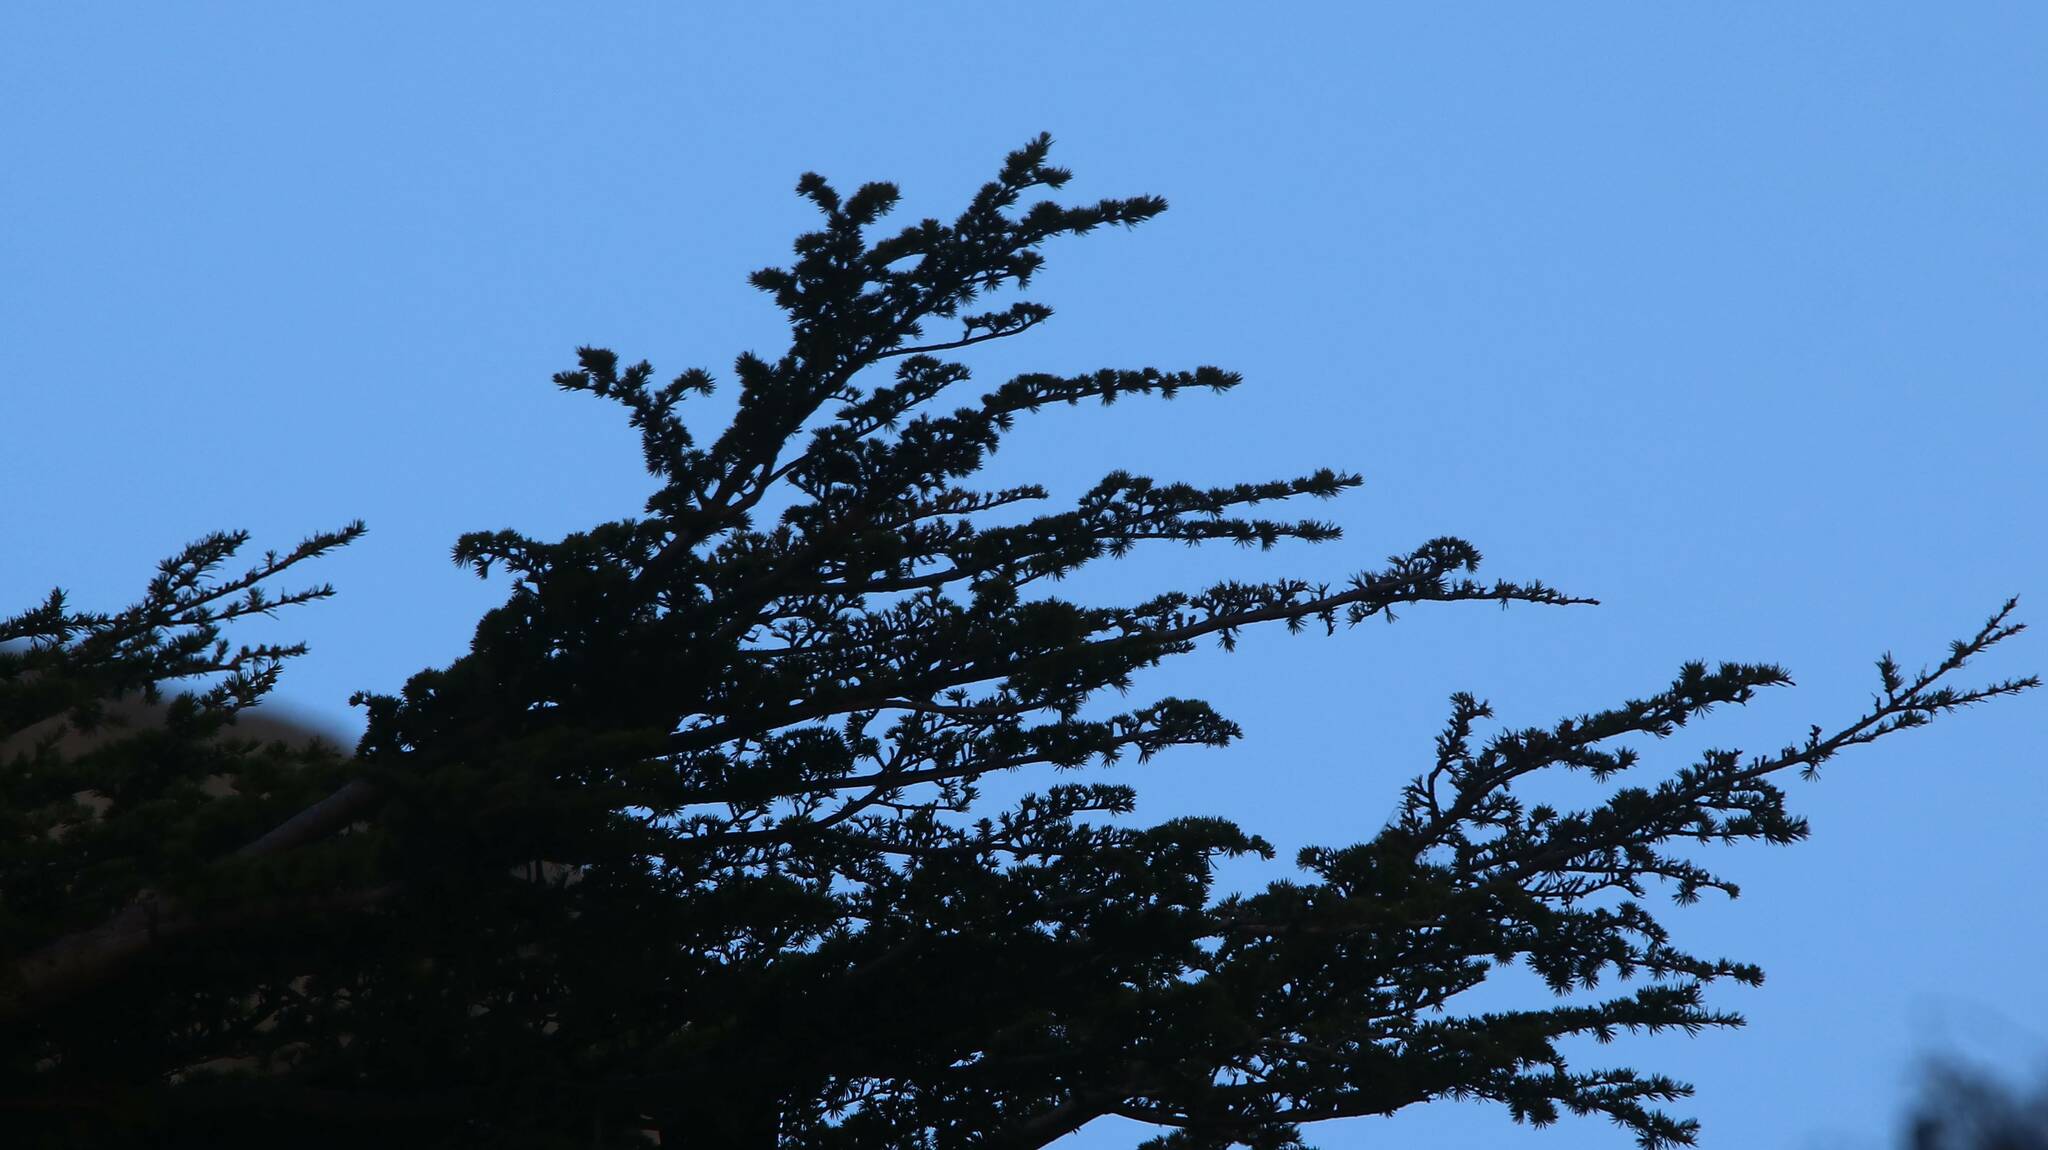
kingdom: Plantae
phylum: Tracheophyta
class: Pinopsida
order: Pinales
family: Pinaceae
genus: Cedrus
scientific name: Cedrus atlantica
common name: Atlas cedar
